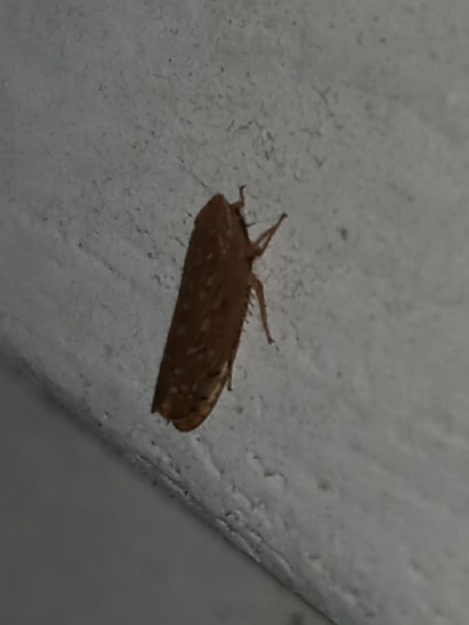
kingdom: Animalia
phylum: Arthropoda
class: Insecta
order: Hemiptera
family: Cicadellidae
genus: Cantura
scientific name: Cantura jucunda
